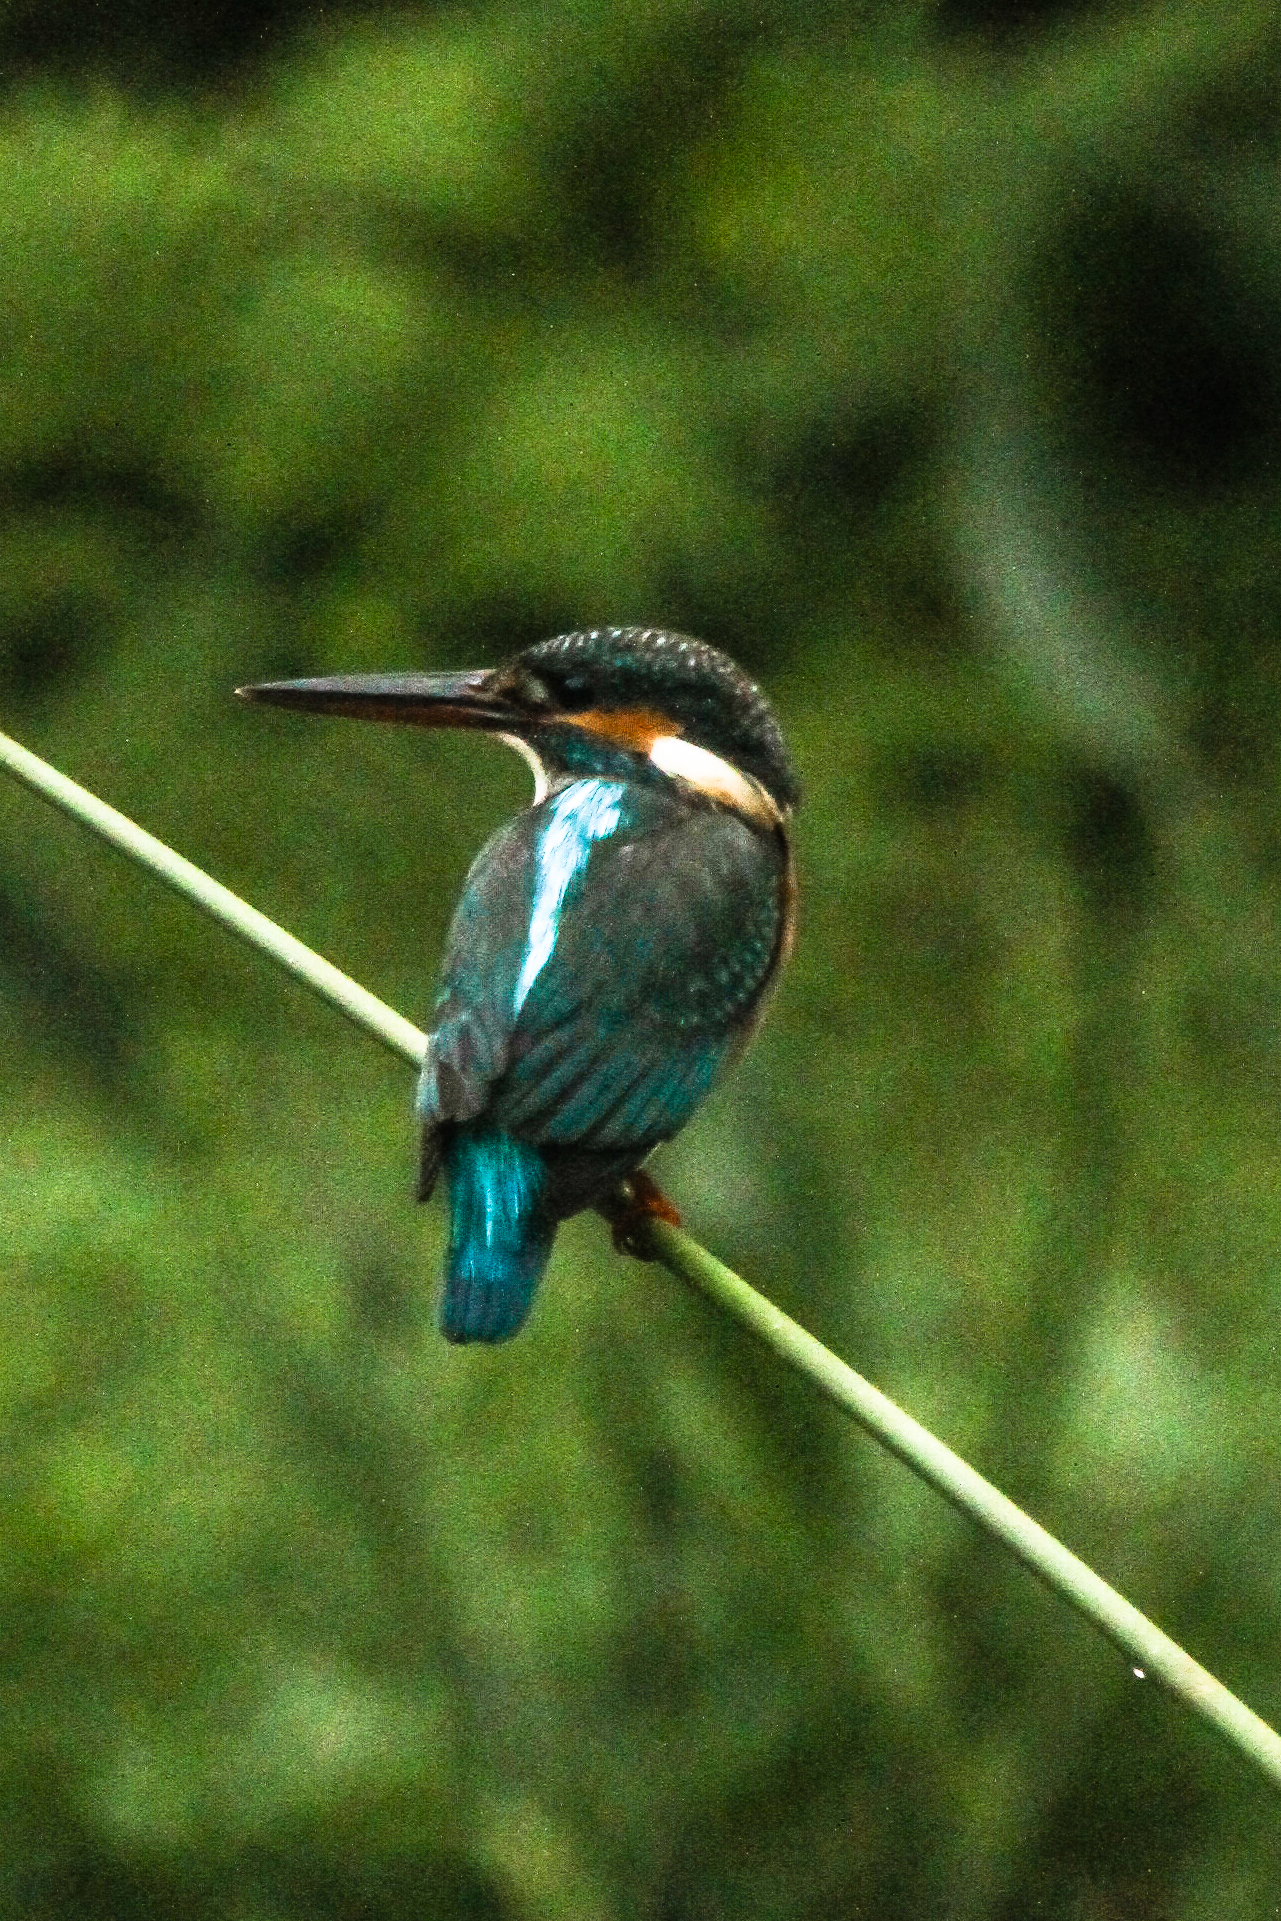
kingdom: Animalia
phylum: Chordata
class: Aves
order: Coraciiformes
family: Alcedinidae
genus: Alcedo
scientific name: Alcedo atthis
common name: Common kingfisher
